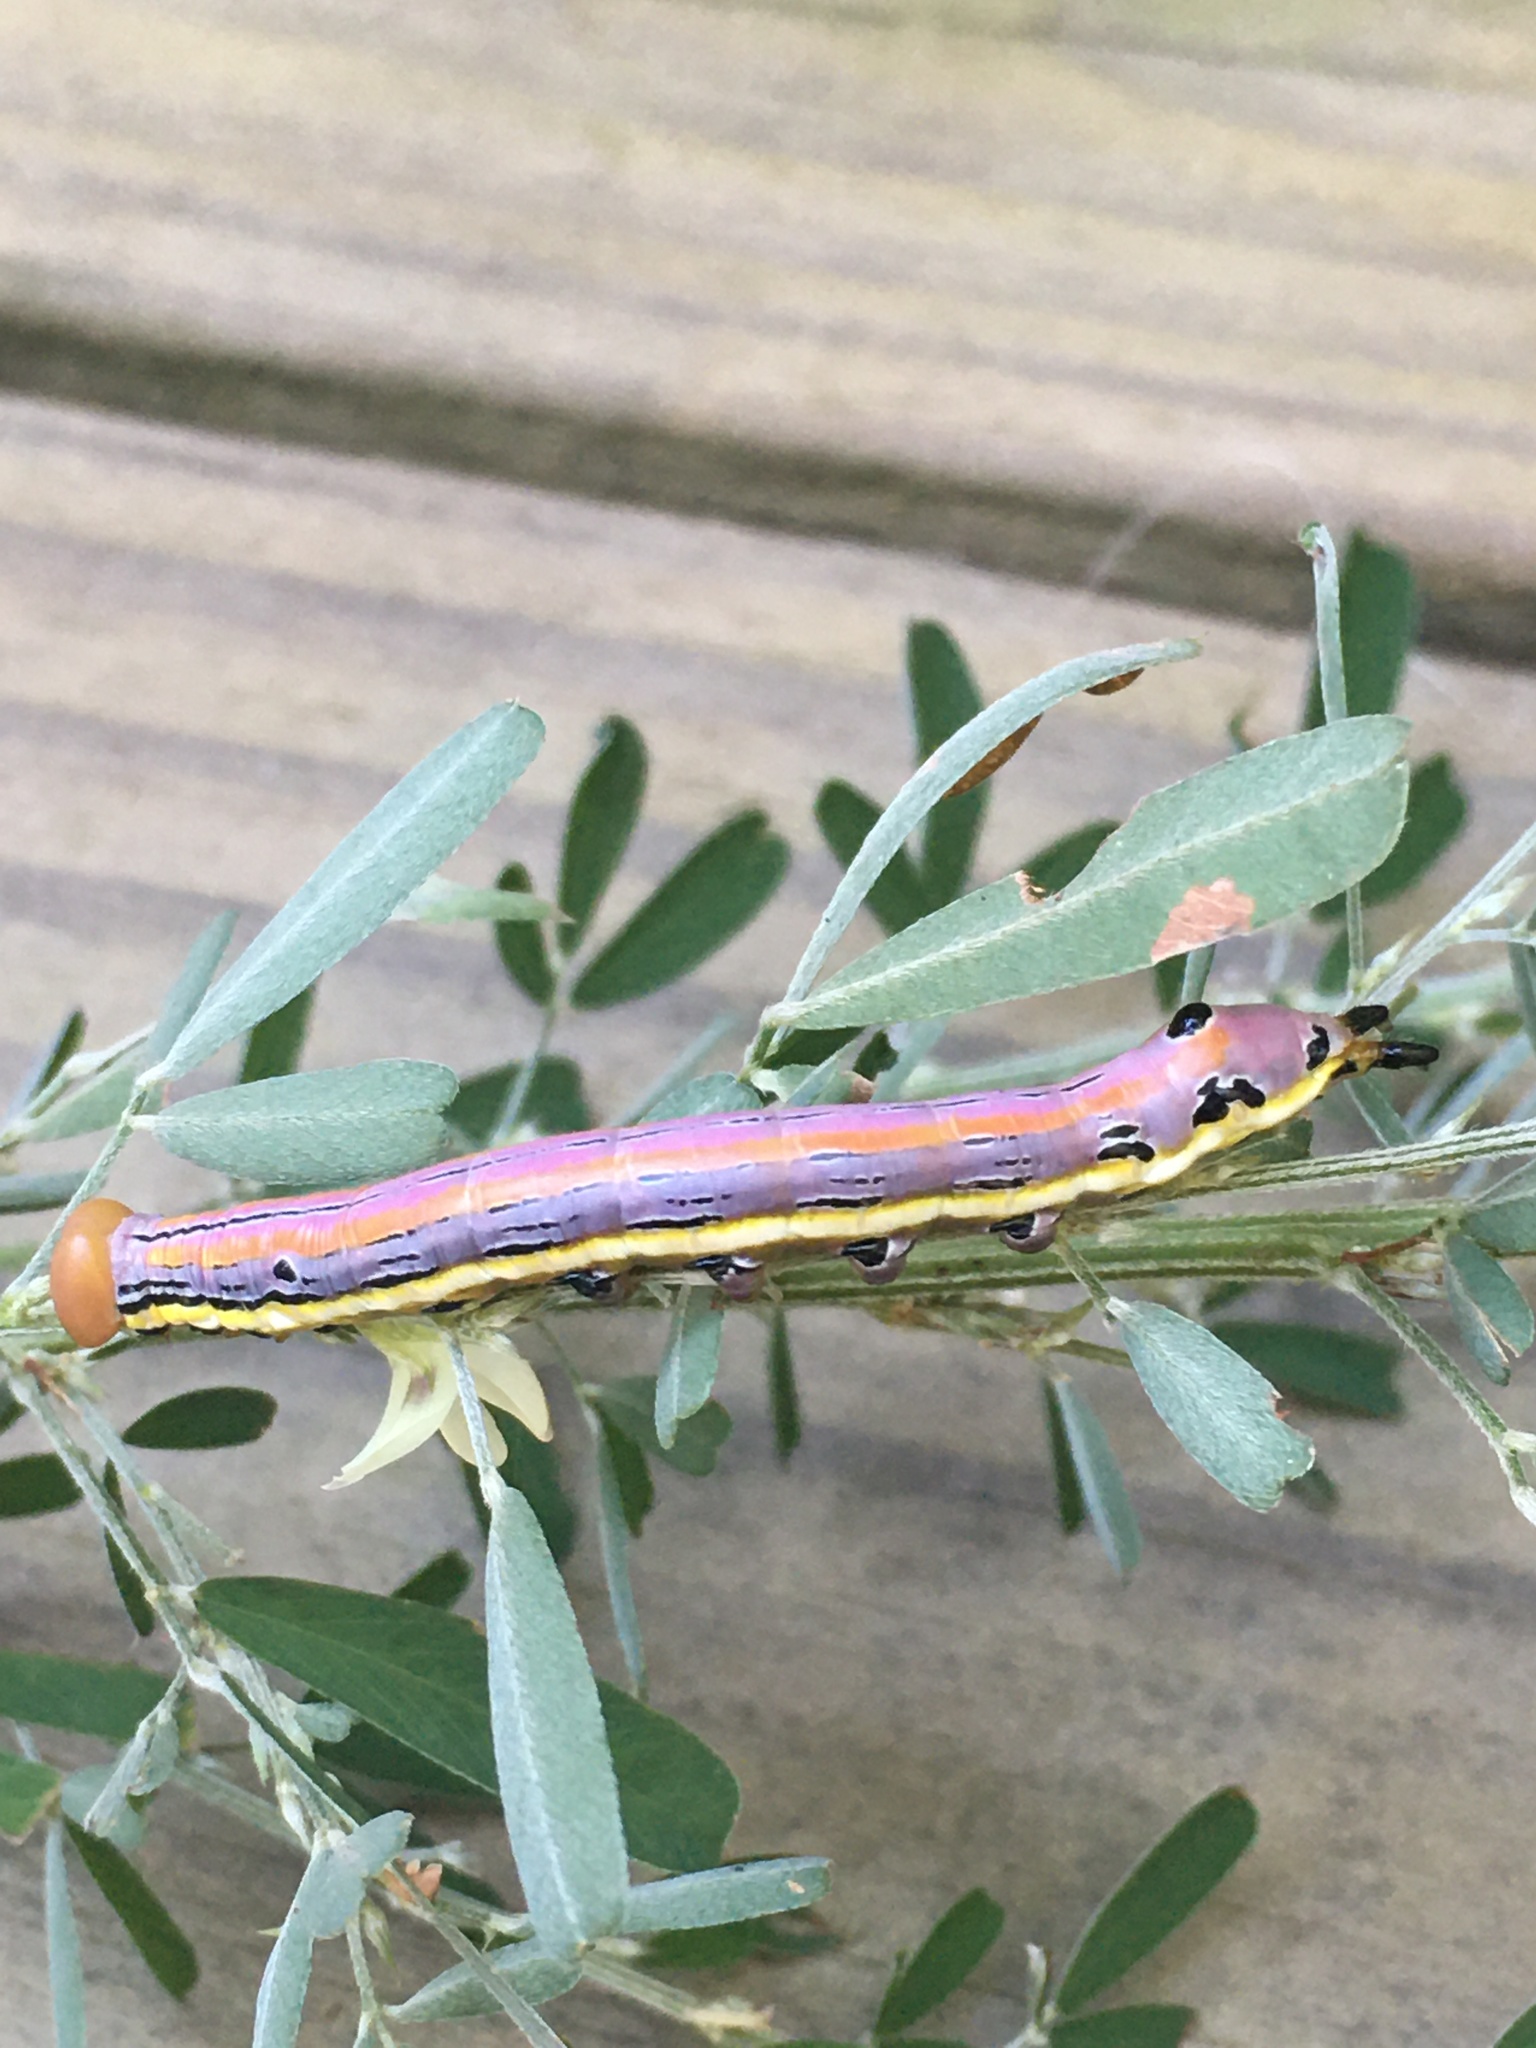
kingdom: Animalia
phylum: Arthropoda
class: Insecta
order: Lepidoptera
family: Notodontidae
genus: Dasylophia
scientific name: Dasylophia anguina
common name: Black-spotted prominent
